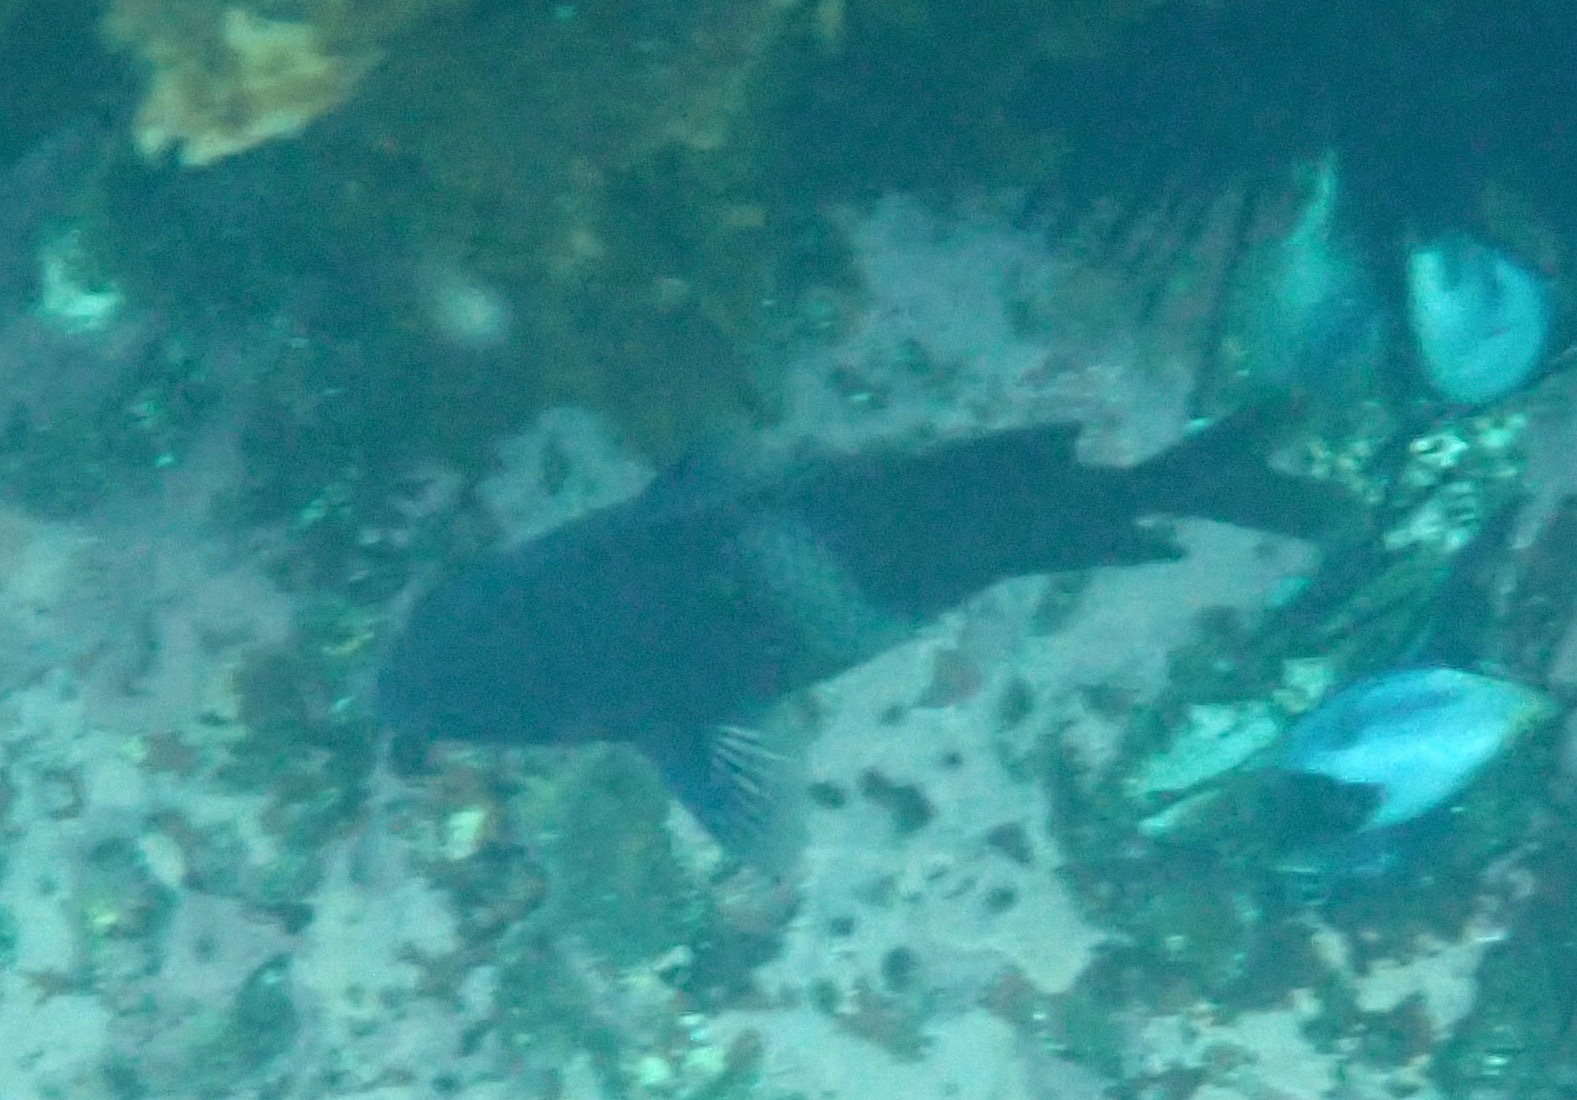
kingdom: Animalia
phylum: Chordata
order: Perciformes
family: Pomacentridae
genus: Parma
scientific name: Parma unifasciata
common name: Girdled parma
